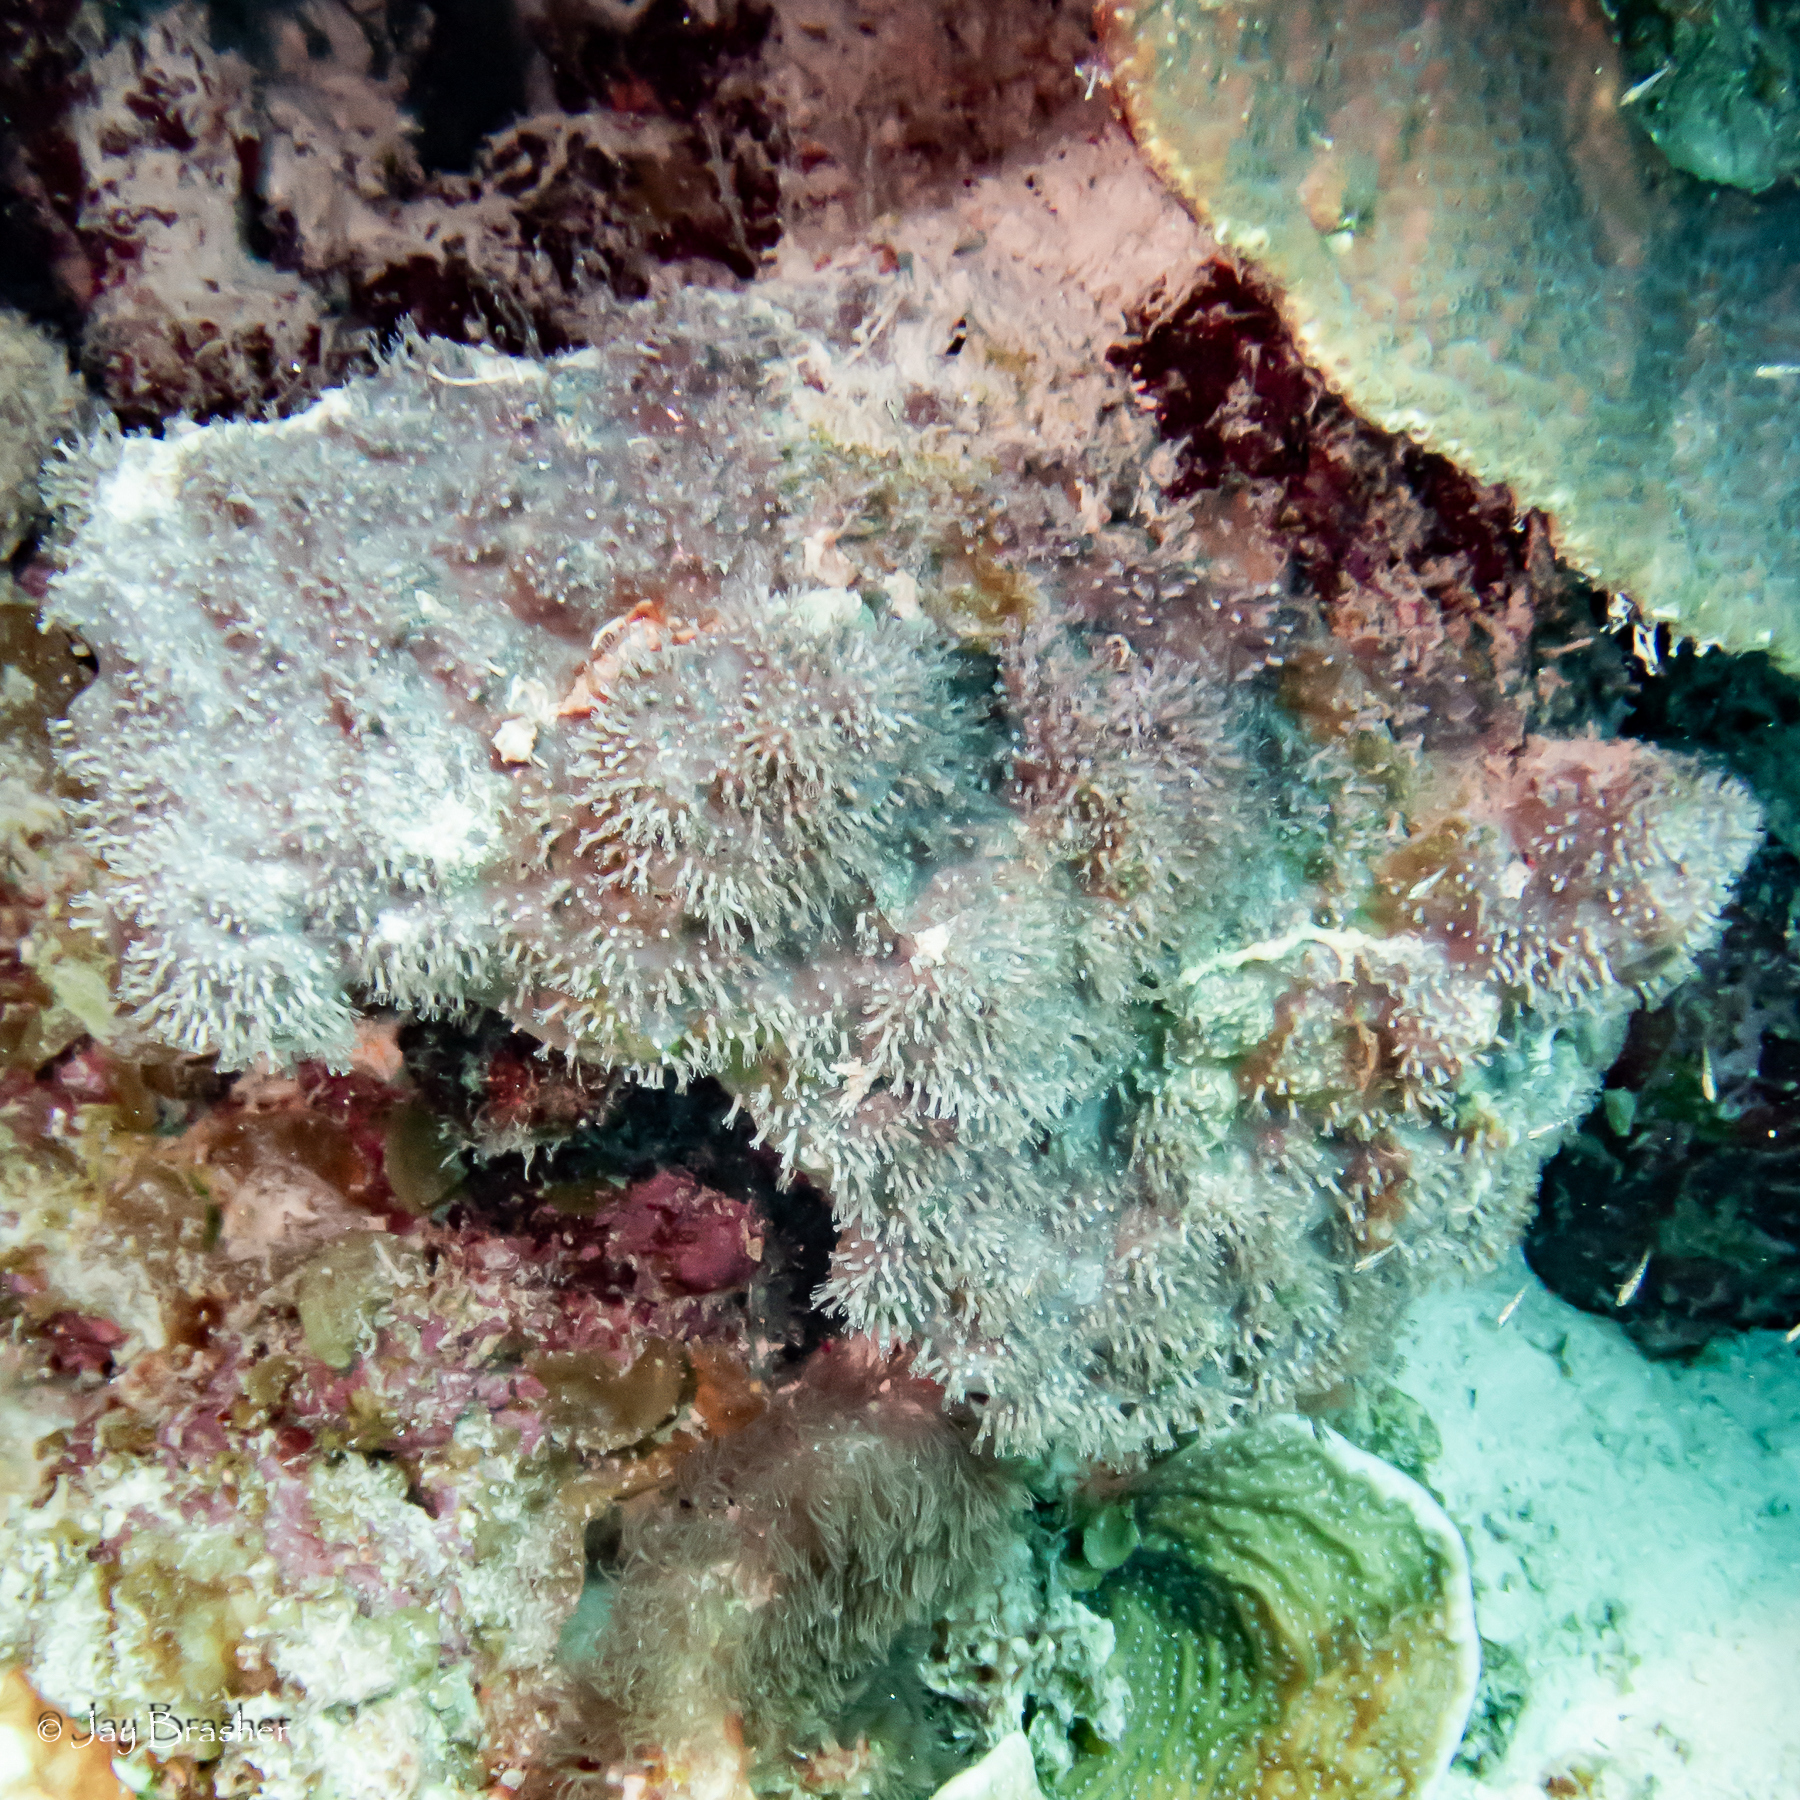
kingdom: Animalia
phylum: Cnidaria
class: Anthozoa
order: Scleralcyonacea
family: Erythropodiidae
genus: Erythropodium
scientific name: Erythropodium caribaeorum
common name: Encrusting gorgonian
